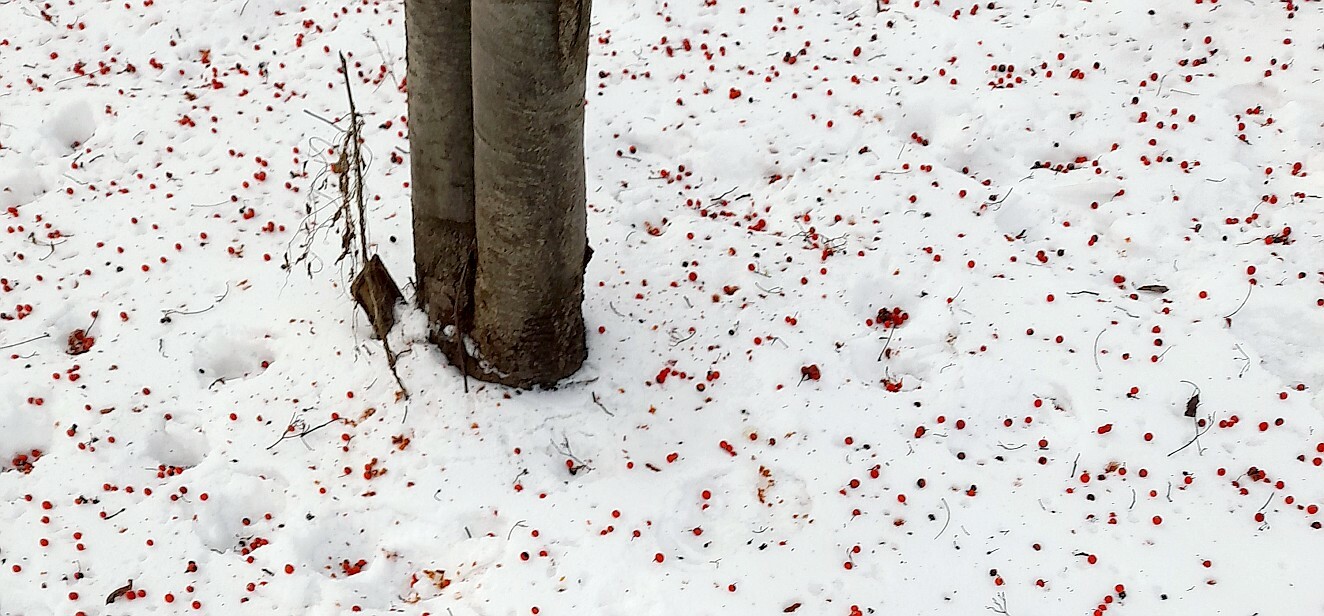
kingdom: Animalia
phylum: Chordata
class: Aves
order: Passeriformes
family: Turdidae
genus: Turdus
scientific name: Turdus pilaris
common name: Fieldfare
